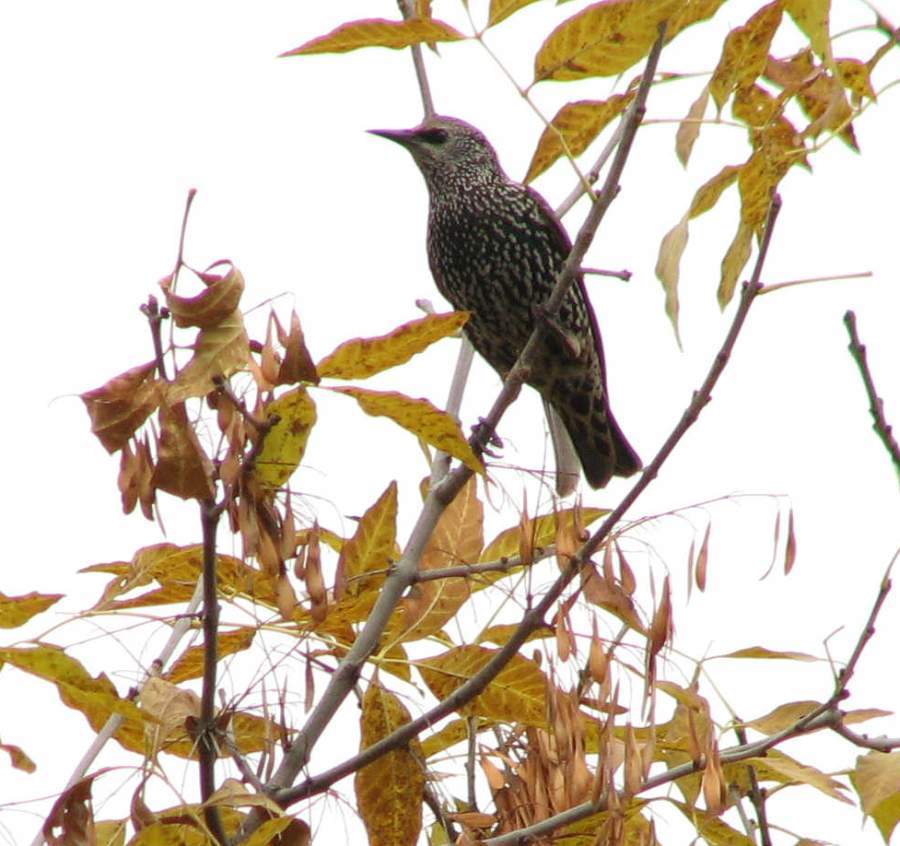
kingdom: Animalia
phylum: Chordata
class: Aves
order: Passeriformes
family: Sturnidae
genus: Sturnus
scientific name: Sturnus vulgaris
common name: Common starling
